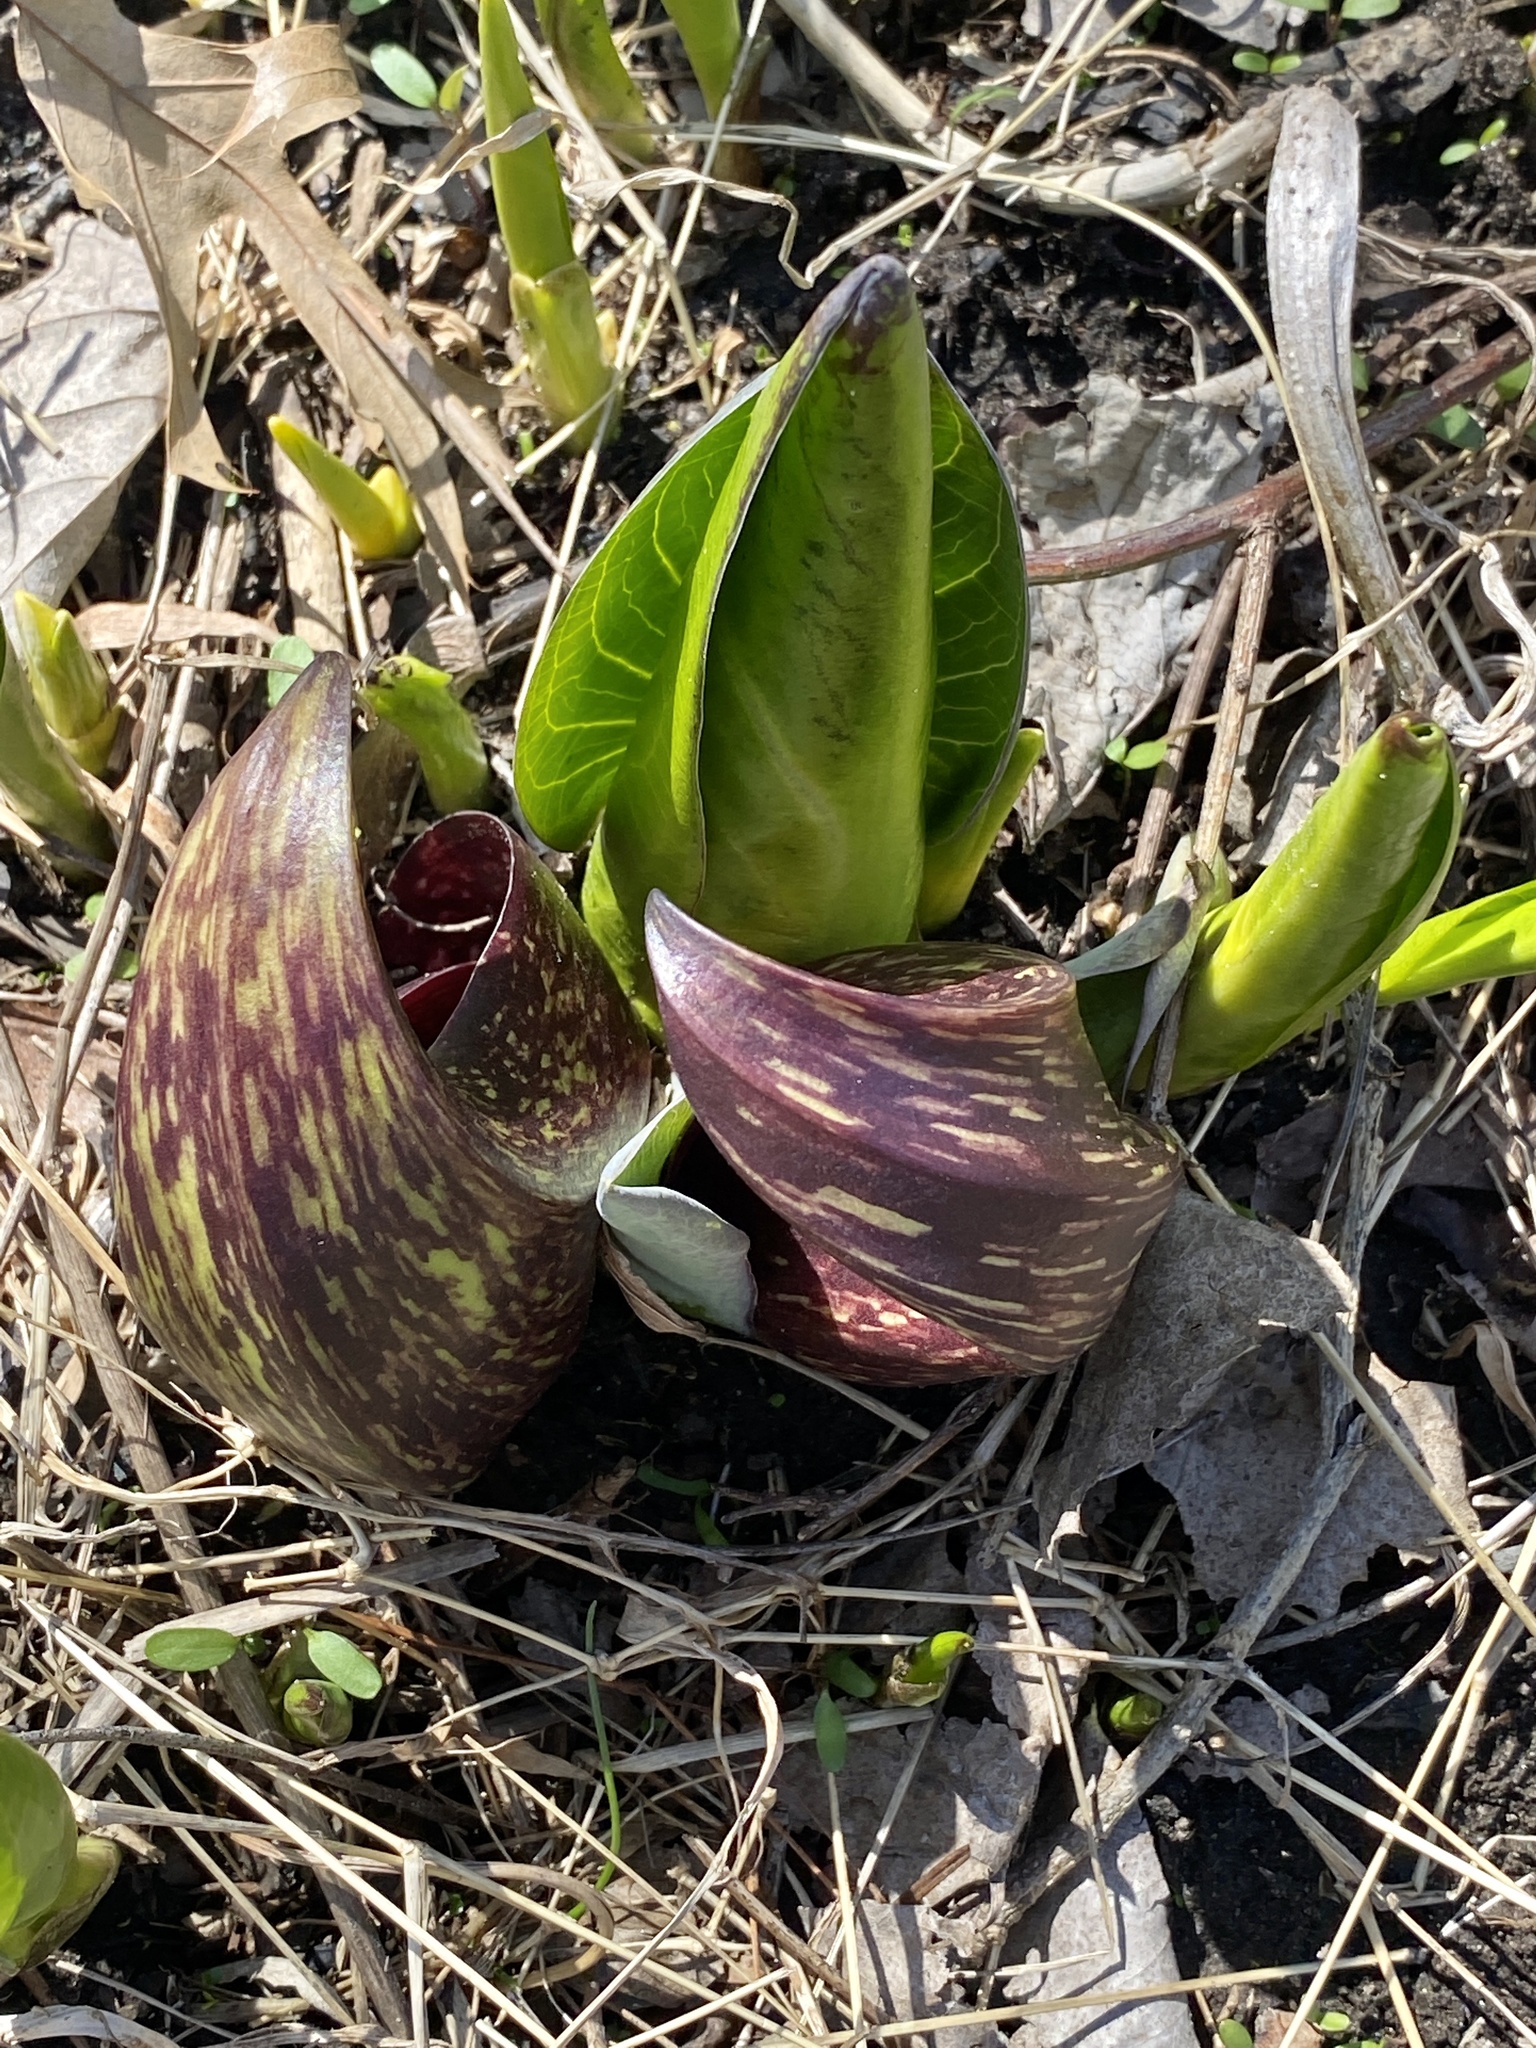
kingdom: Plantae
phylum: Tracheophyta
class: Liliopsida
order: Alismatales
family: Araceae
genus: Symplocarpus
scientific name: Symplocarpus foetidus
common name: Eastern skunk cabbage
